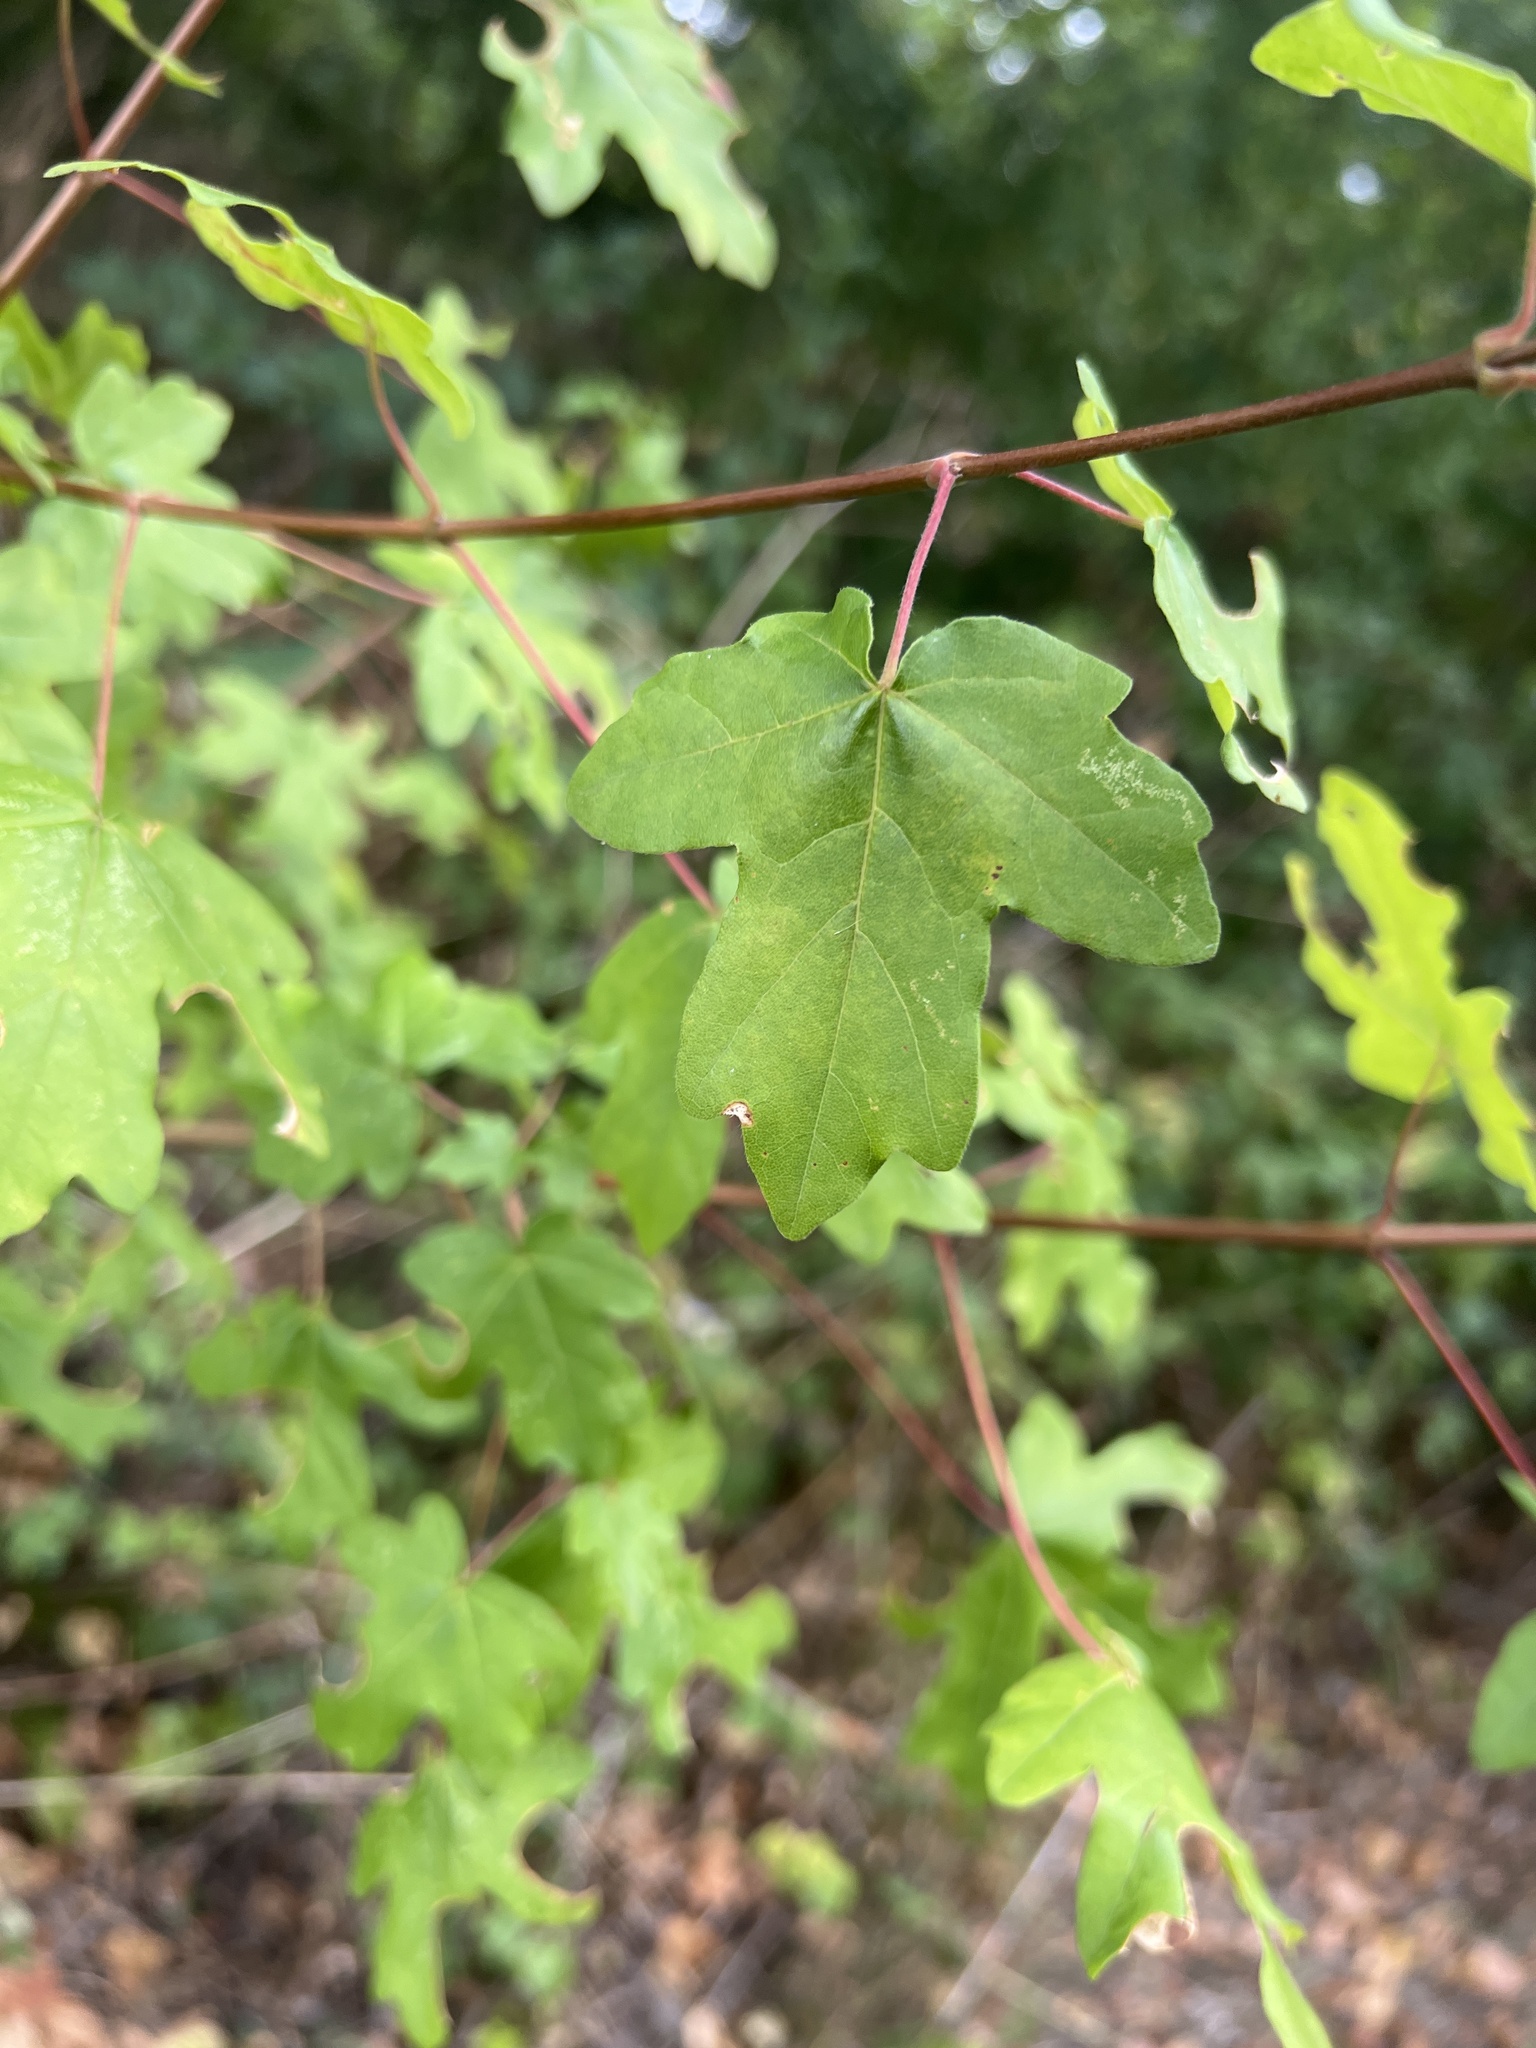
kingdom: Plantae
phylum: Tracheophyta
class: Magnoliopsida
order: Sapindales
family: Sapindaceae
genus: Acer
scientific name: Acer campestre
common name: Field maple
